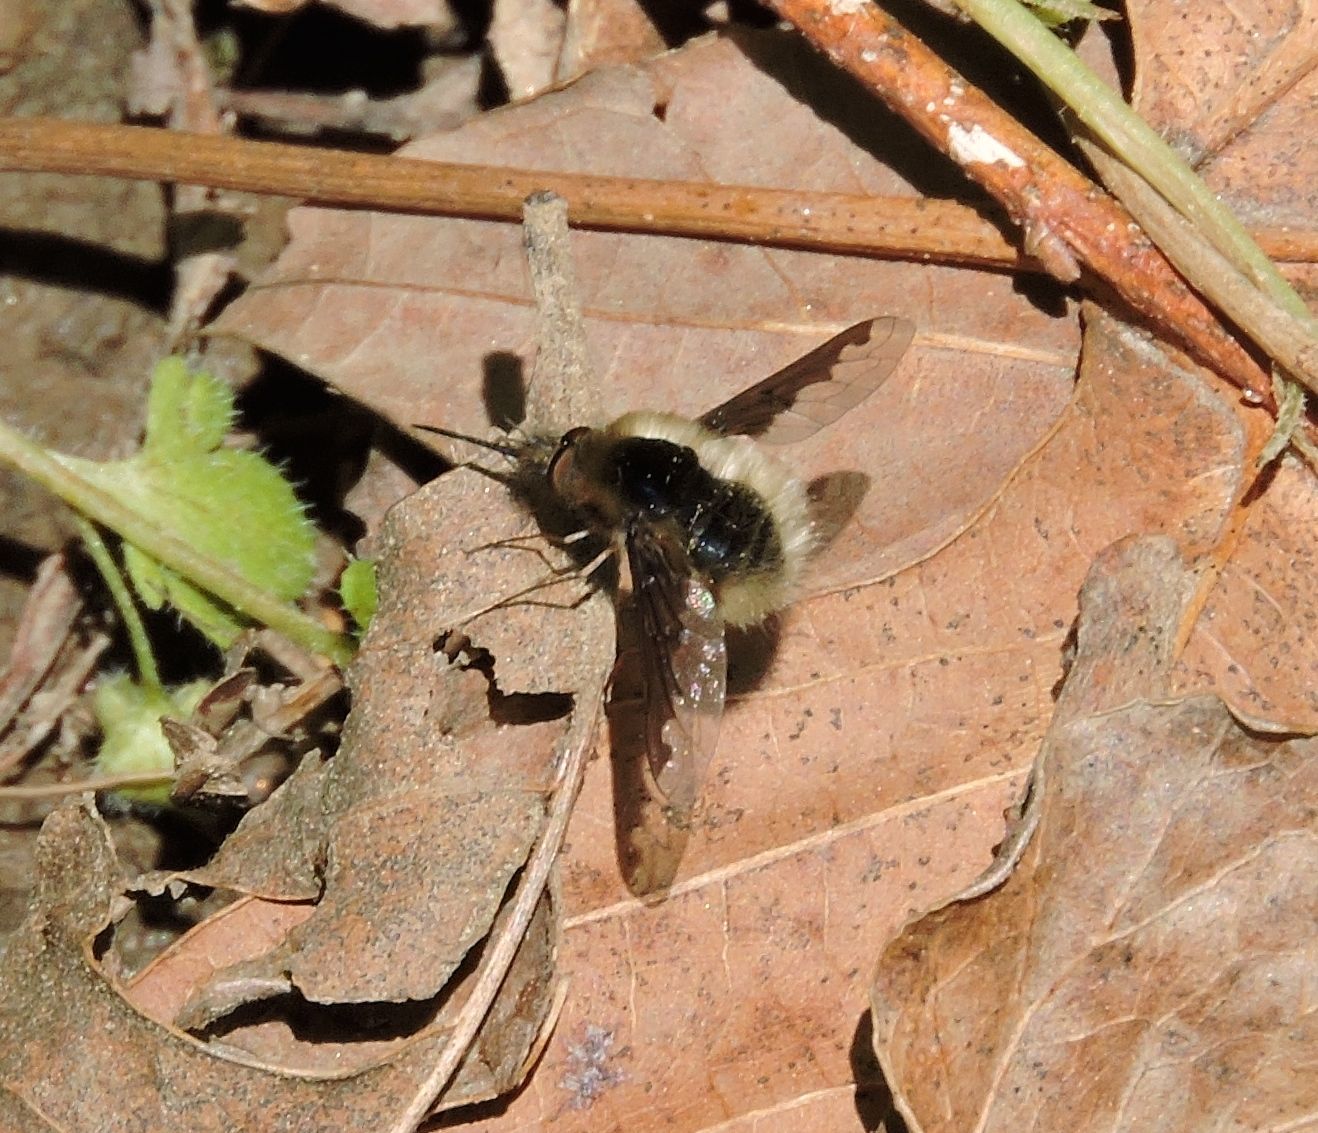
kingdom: Animalia
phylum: Arthropoda
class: Insecta
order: Diptera
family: Bombyliidae
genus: Bombylius
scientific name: Bombylius major
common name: Bee fly
